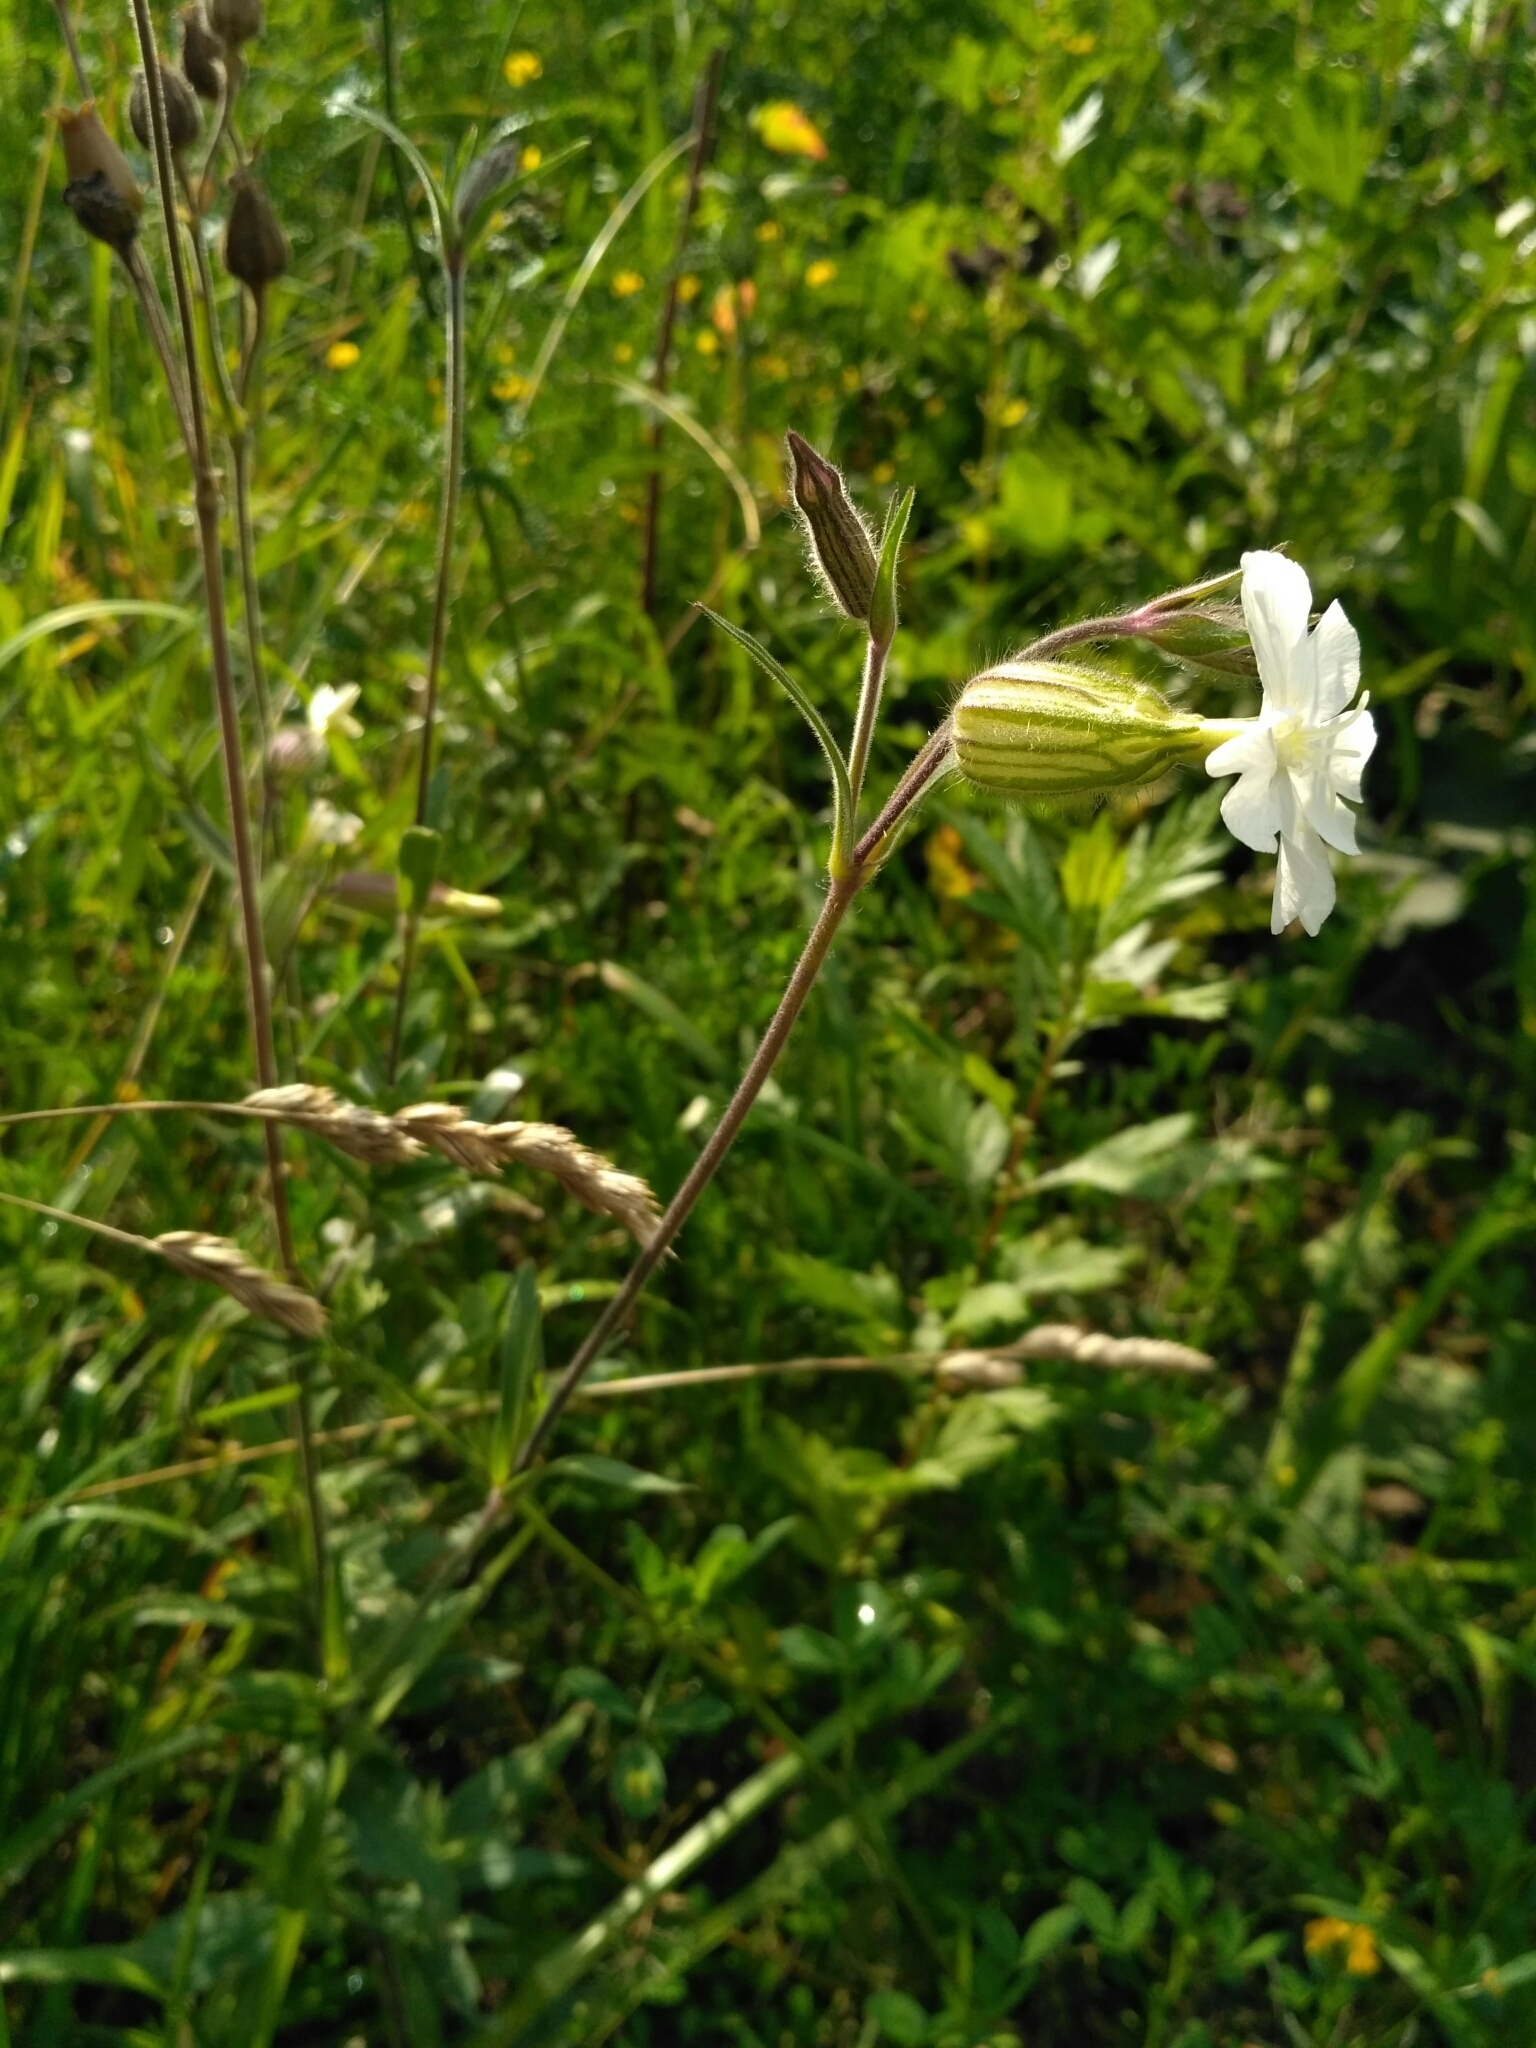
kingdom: Plantae
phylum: Tracheophyta
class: Magnoliopsida
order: Caryophyllales
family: Caryophyllaceae
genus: Silene
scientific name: Silene latifolia
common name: White campion
